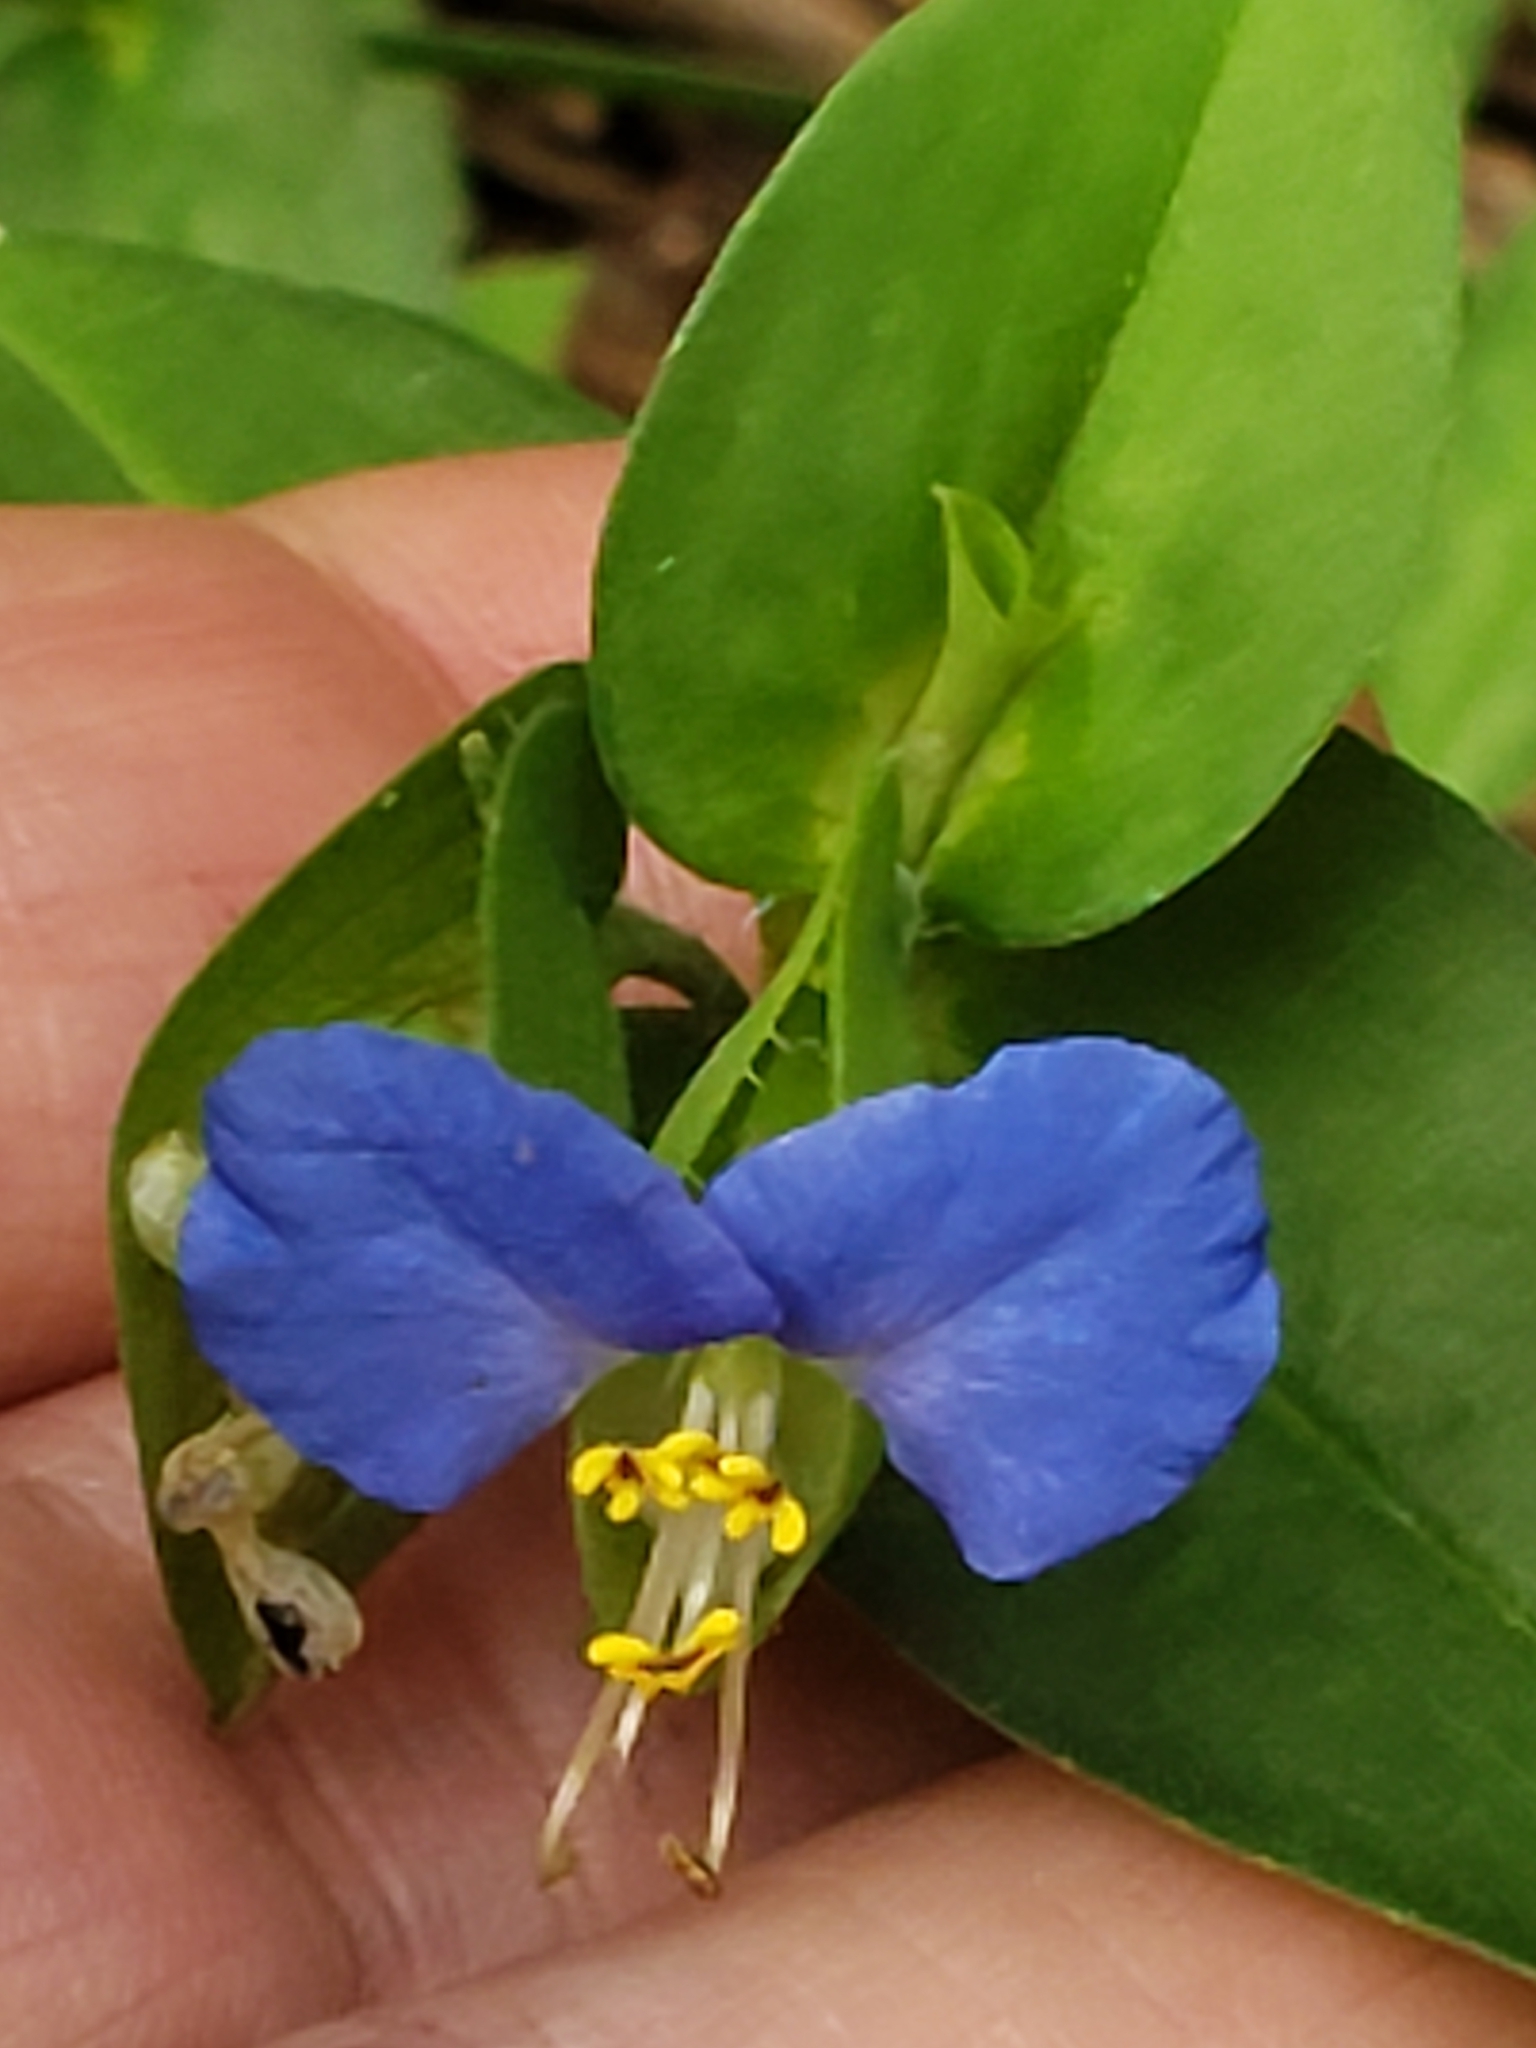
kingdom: Plantae
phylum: Tracheophyta
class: Liliopsida
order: Commelinales
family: Commelinaceae
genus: Commelina
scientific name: Commelina communis
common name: Asiatic dayflower
